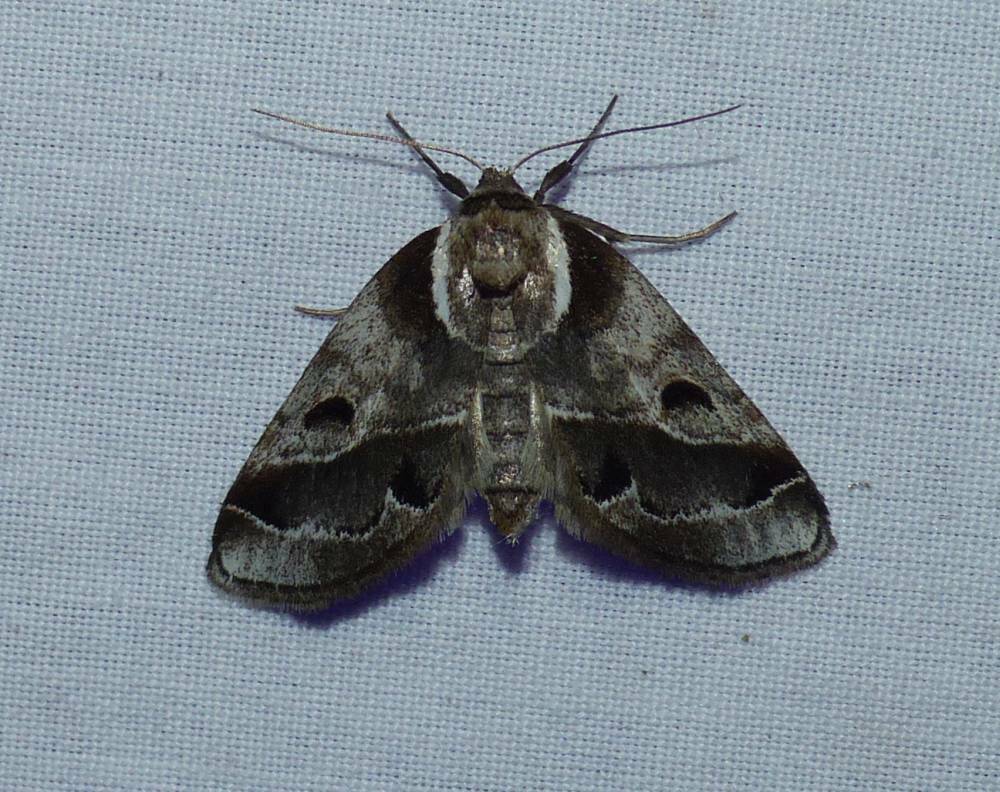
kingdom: Animalia
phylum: Arthropoda
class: Insecta
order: Lepidoptera
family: Nolidae
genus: Baileya
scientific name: Baileya doubledayi
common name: Doubleday's baileya moth
